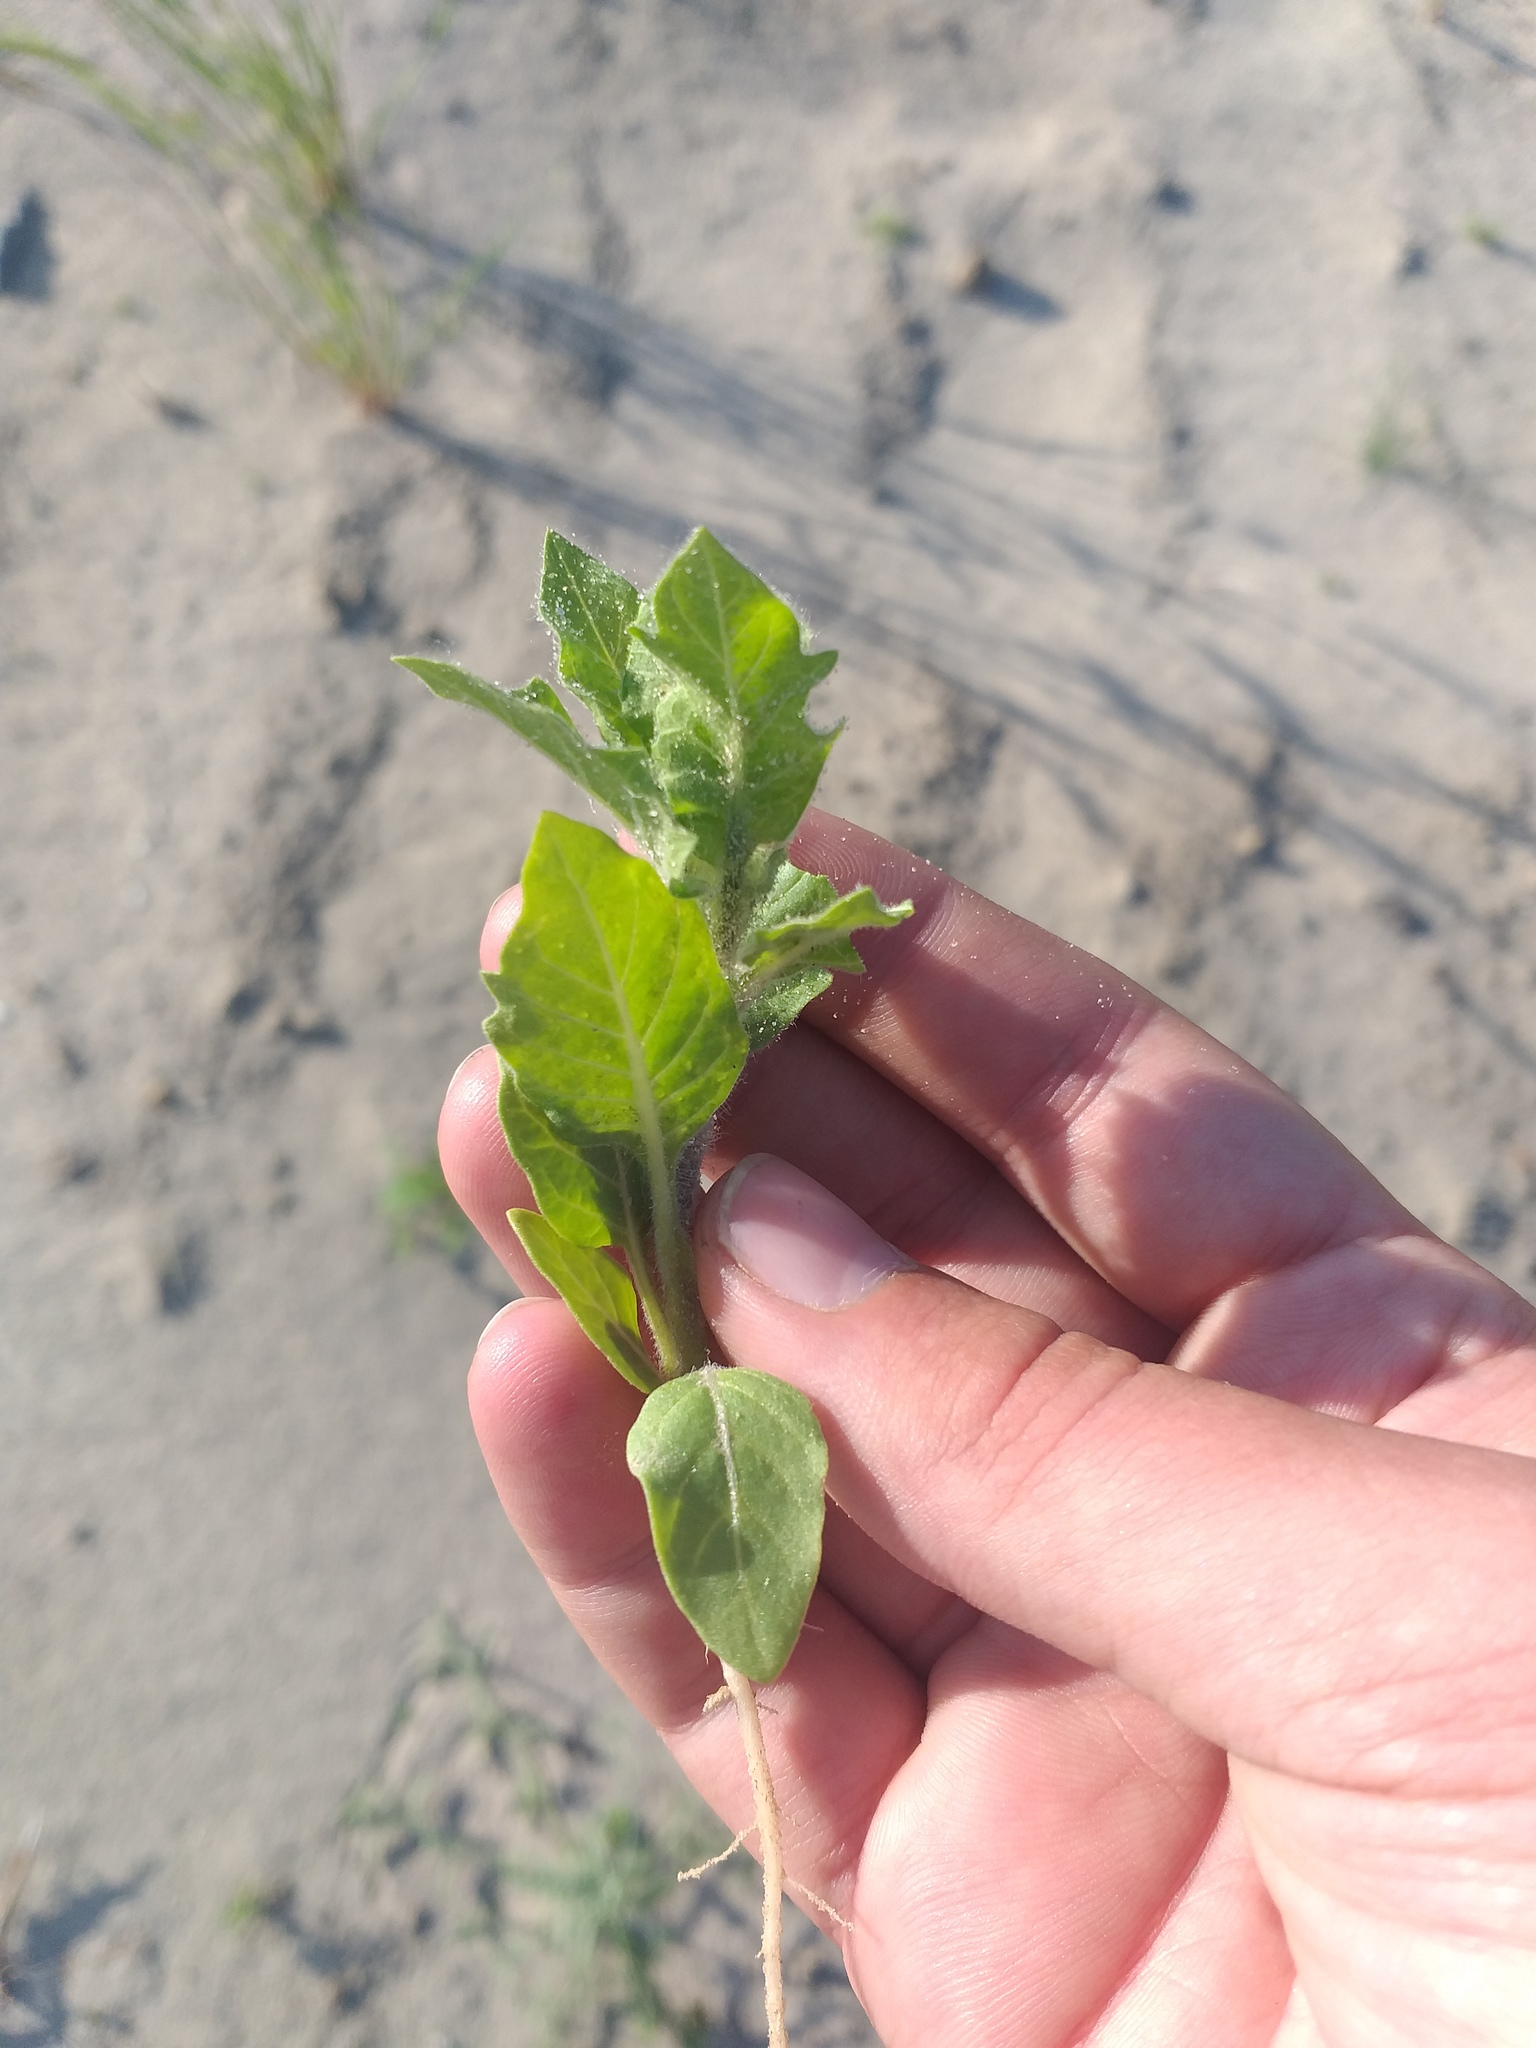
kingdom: Plantae
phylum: Tracheophyta
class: Magnoliopsida
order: Solanales
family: Solanaceae
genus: Hyoscyamus
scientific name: Hyoscyamus niger
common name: Henbane
